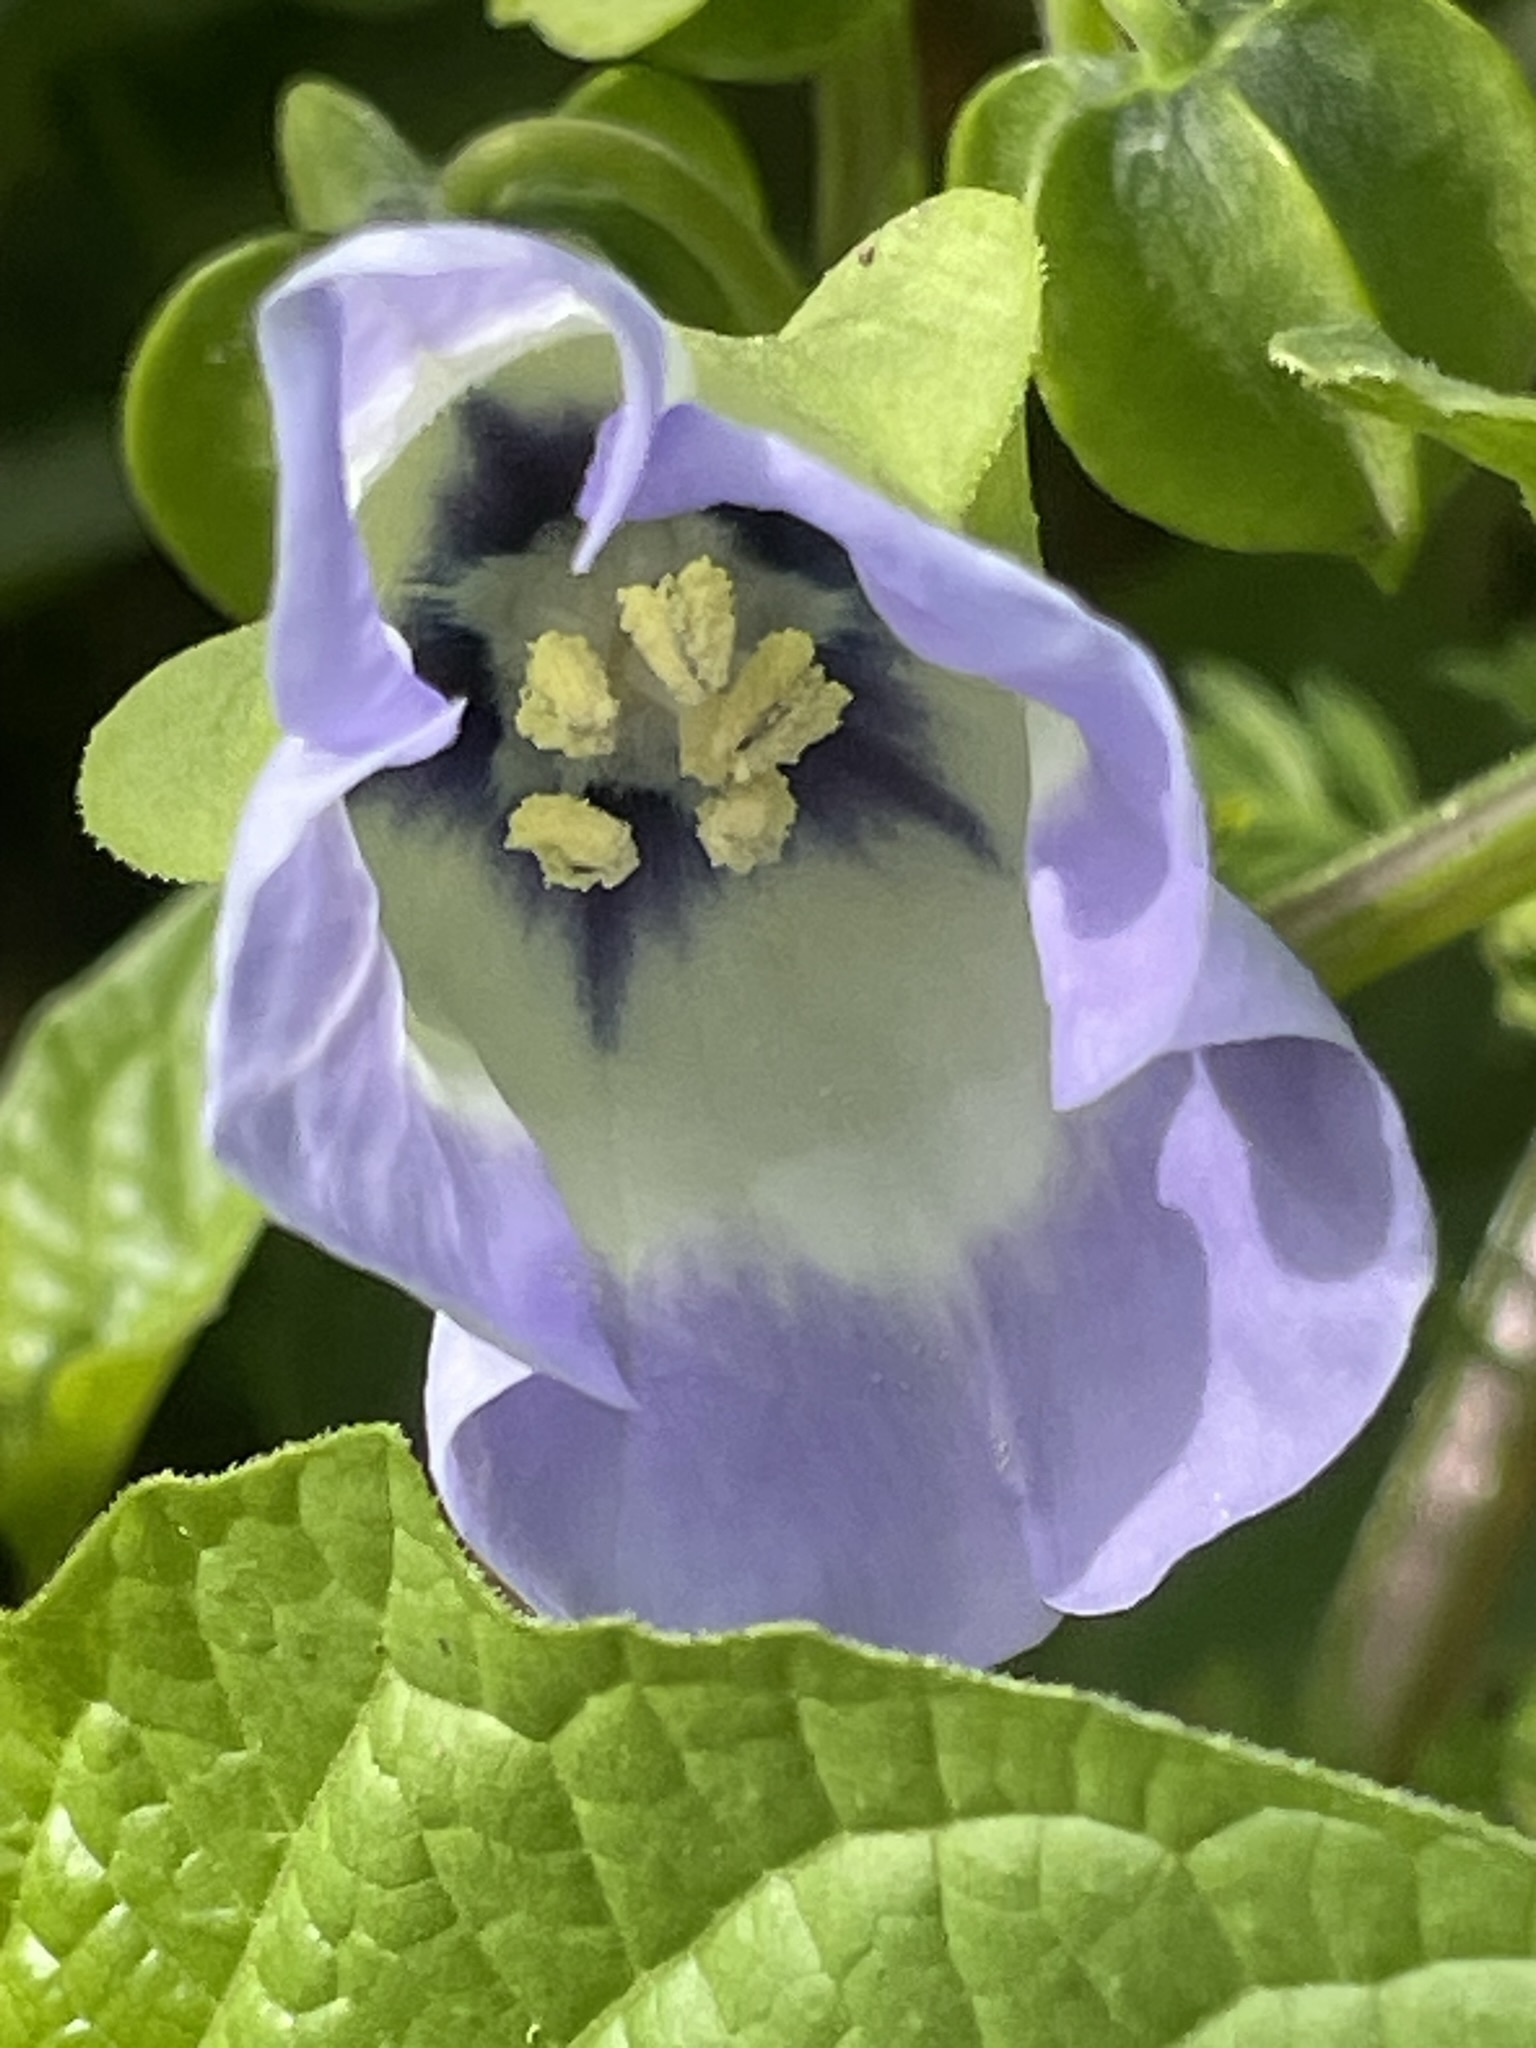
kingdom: Plantae
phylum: Tracheophyta
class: Magnoliopsida
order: Solanales
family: Solanaceae
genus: Nicandra
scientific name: Nicandra physalodes
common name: Apple-of-peru
